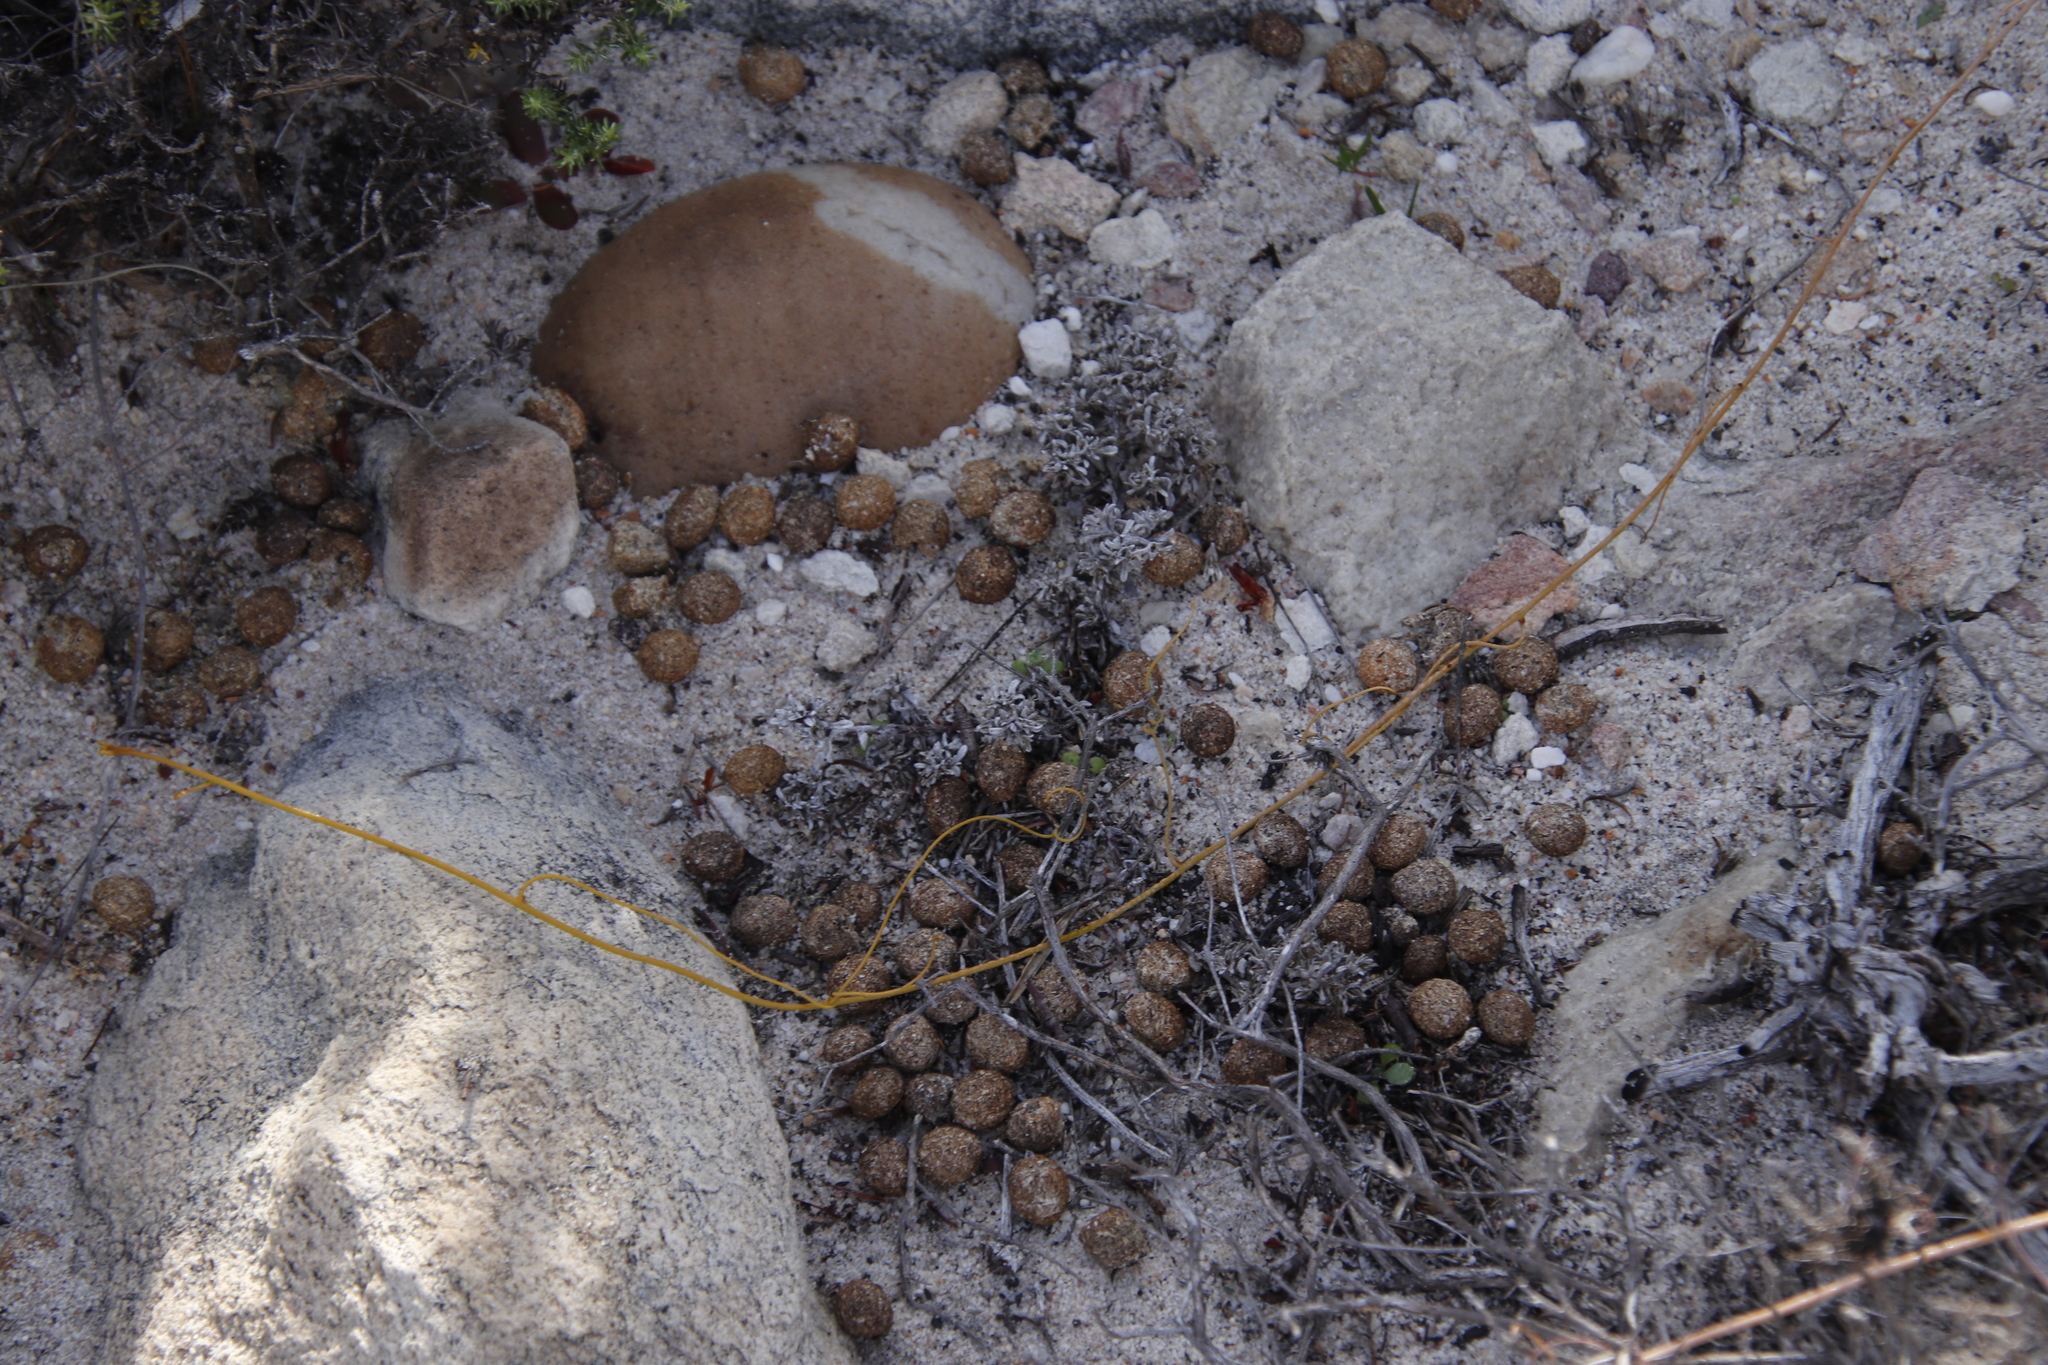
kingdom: Animalia
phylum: Chordata
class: Mammalia
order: Lagomorpha
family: Leporidae
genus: Pronolagus
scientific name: Pronolagus saundersiae
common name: Hewitt's red rock hare
